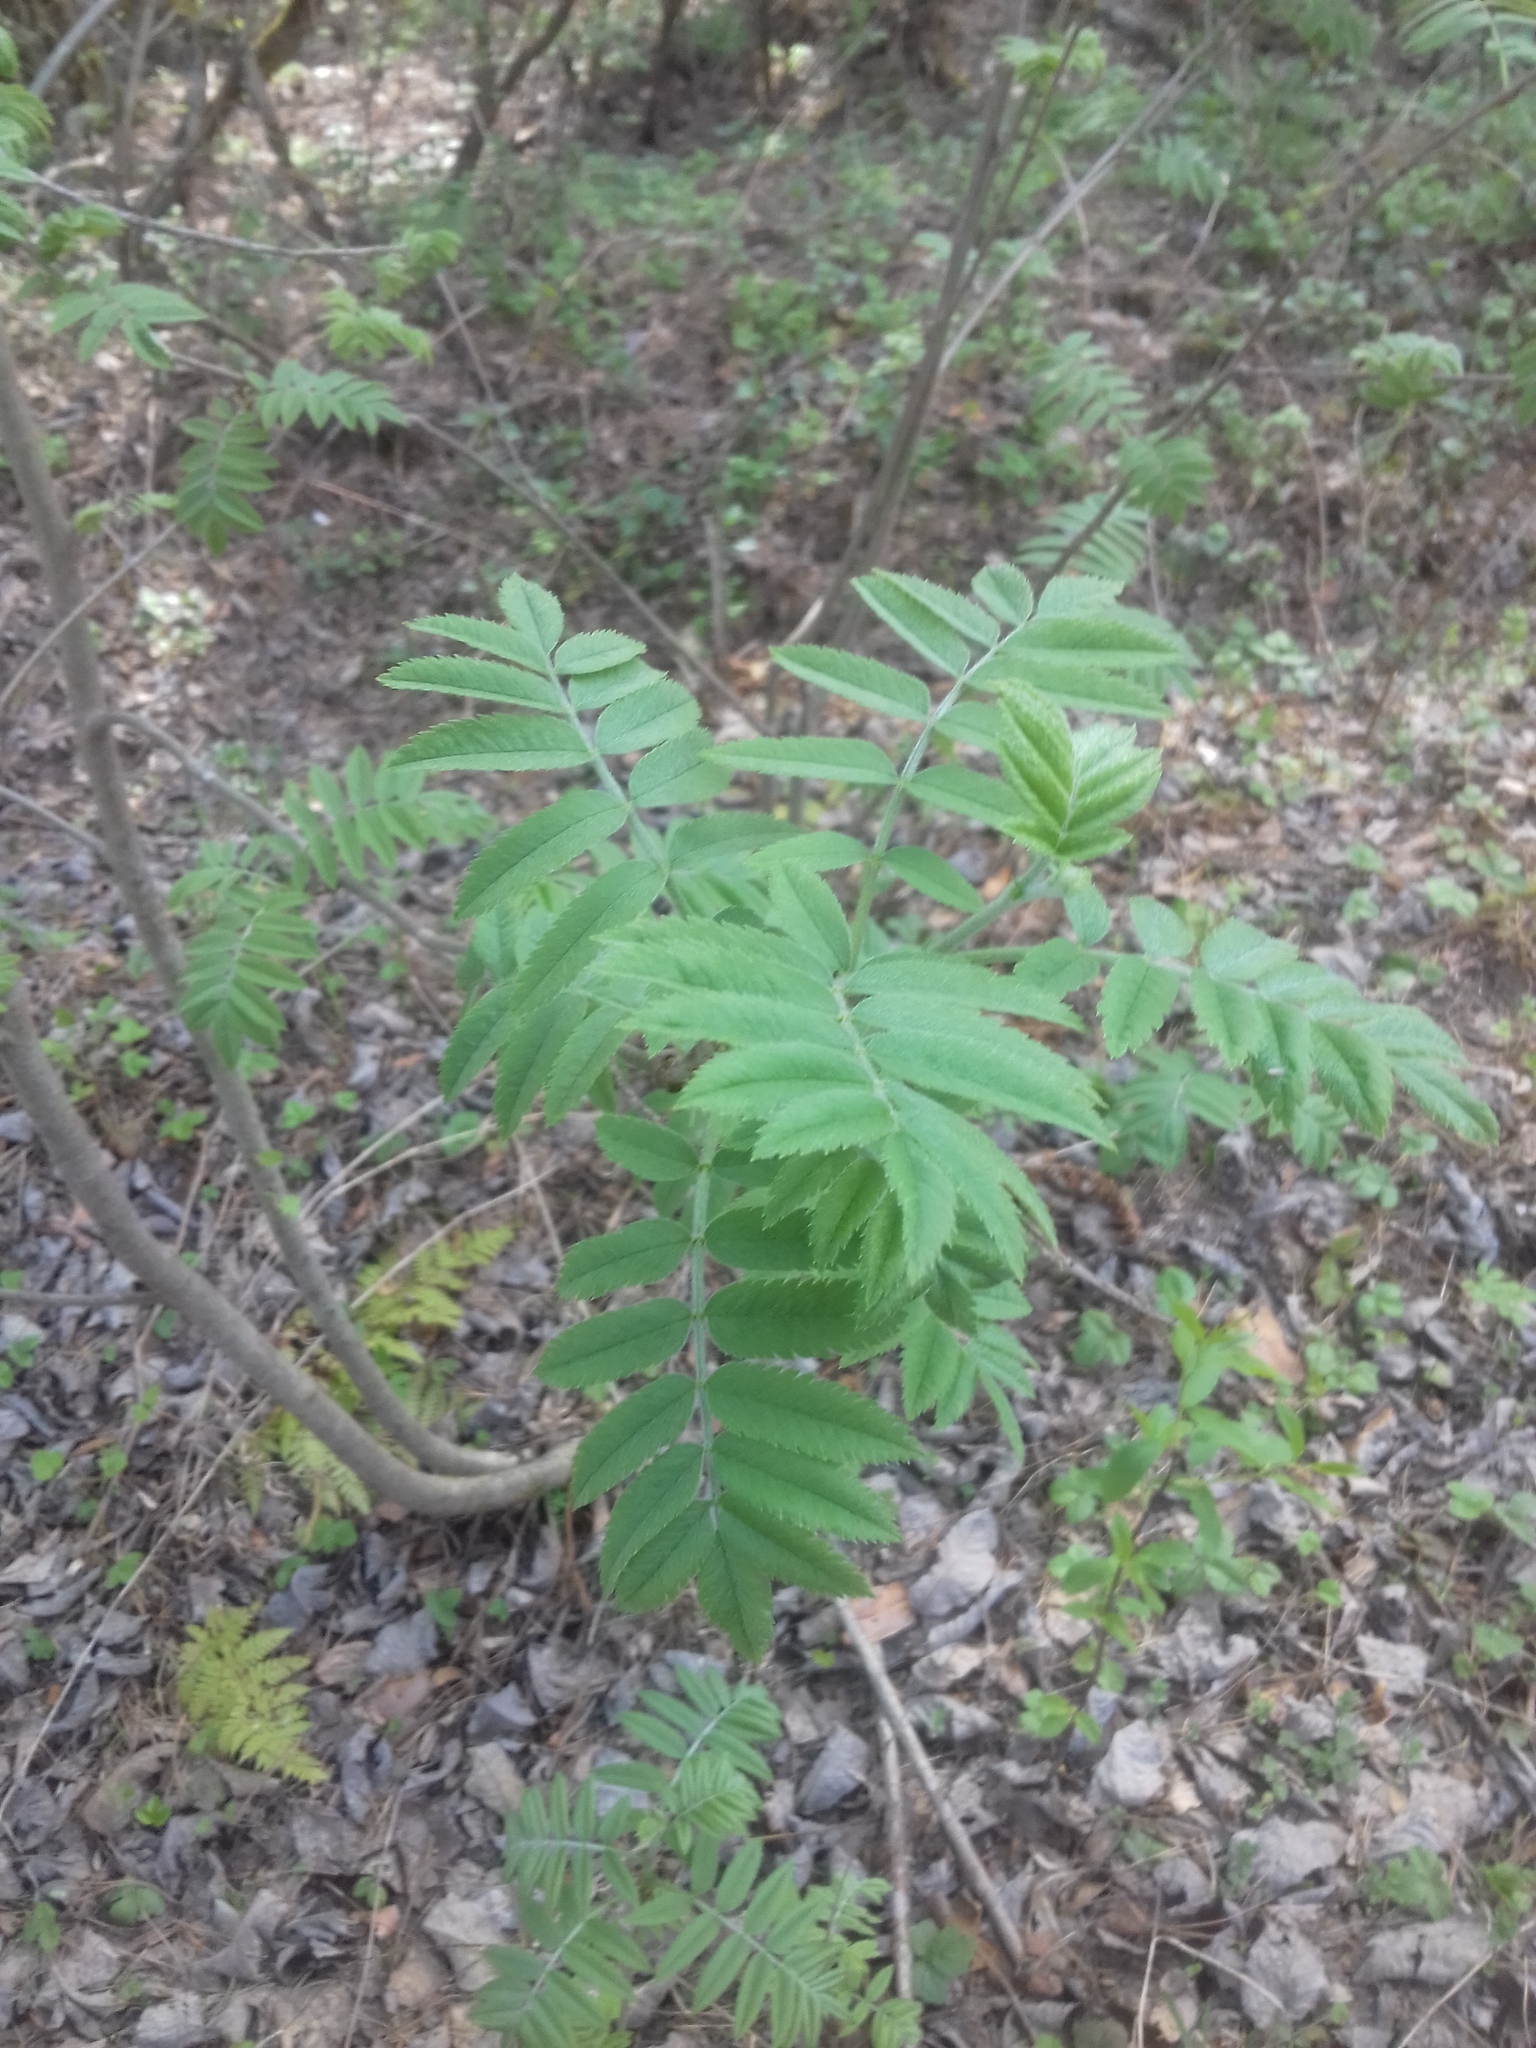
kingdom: Plantae
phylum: Tracheophyta
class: Magnoliopsida
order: Rosales
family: Rosaceae
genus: Sorbus
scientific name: Sorbus aucuparia
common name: Rowan
